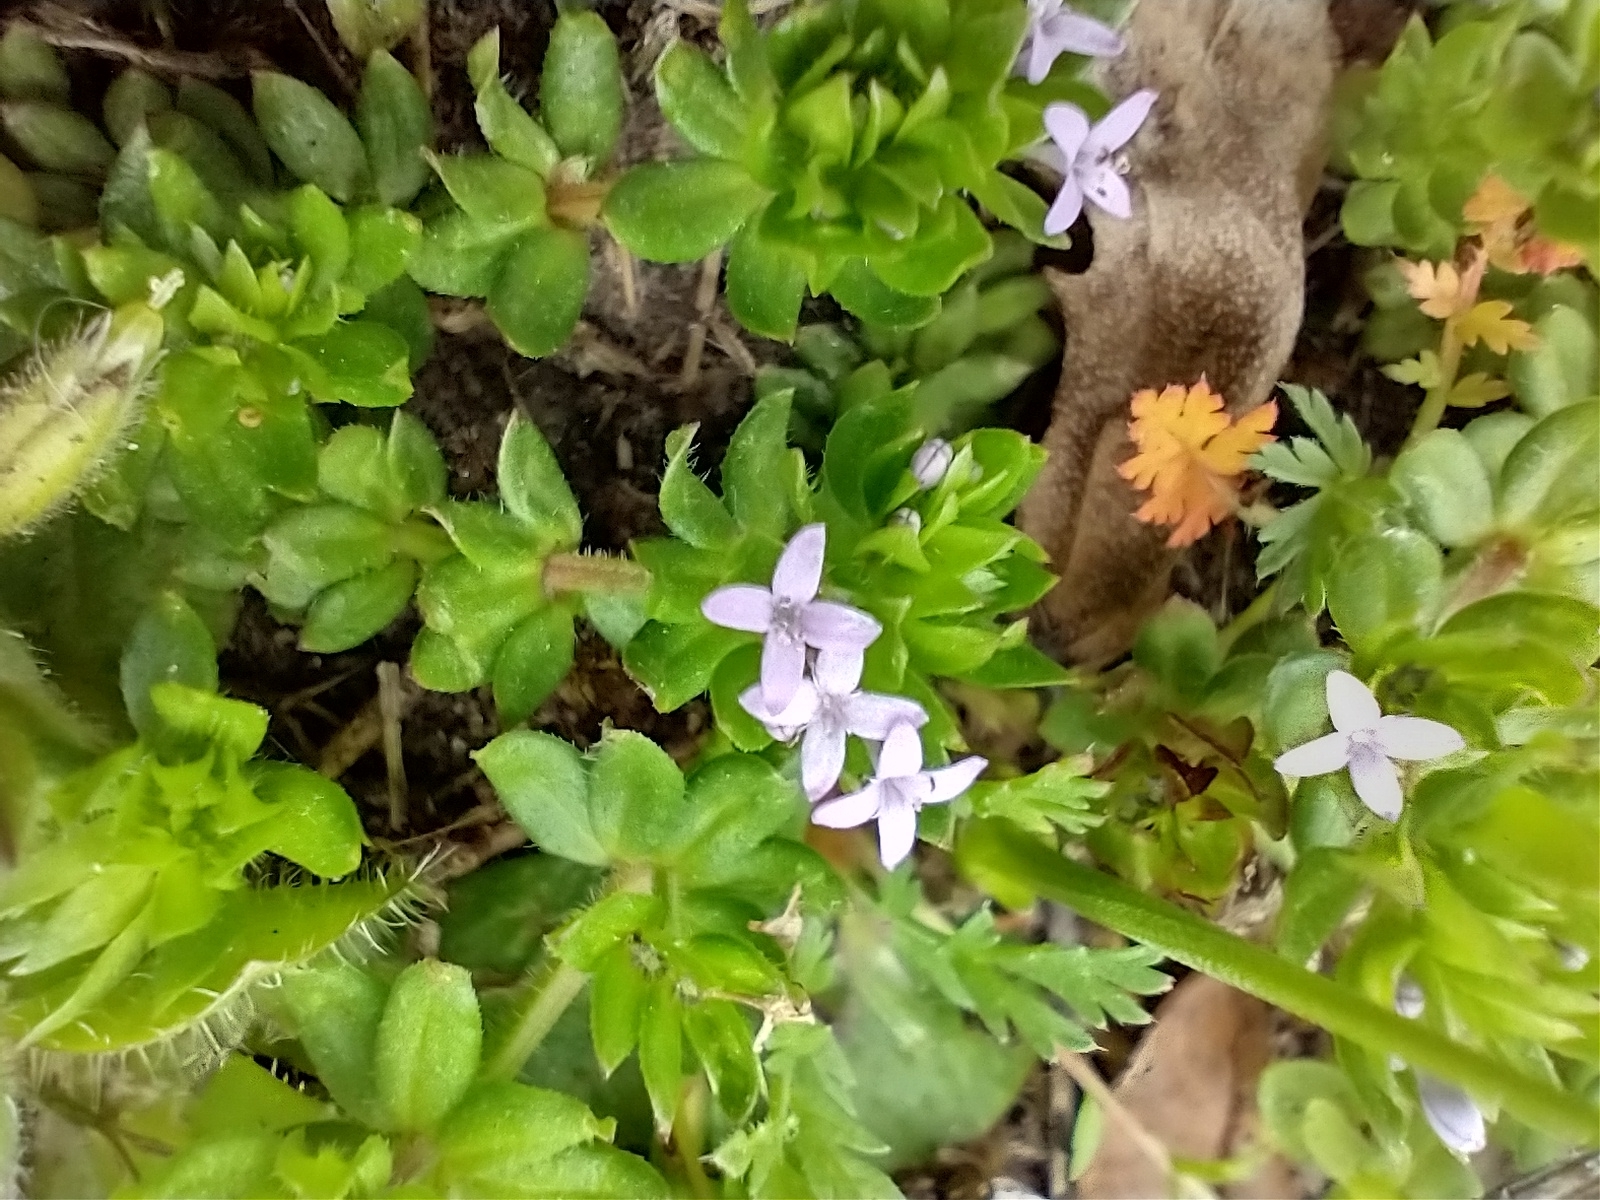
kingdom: Plantae
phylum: Tracheophyta
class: Magnoliopsida
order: Gentianales
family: Rubiaceae
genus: Sherardia
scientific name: Sherardia arvensis
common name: Field madder
